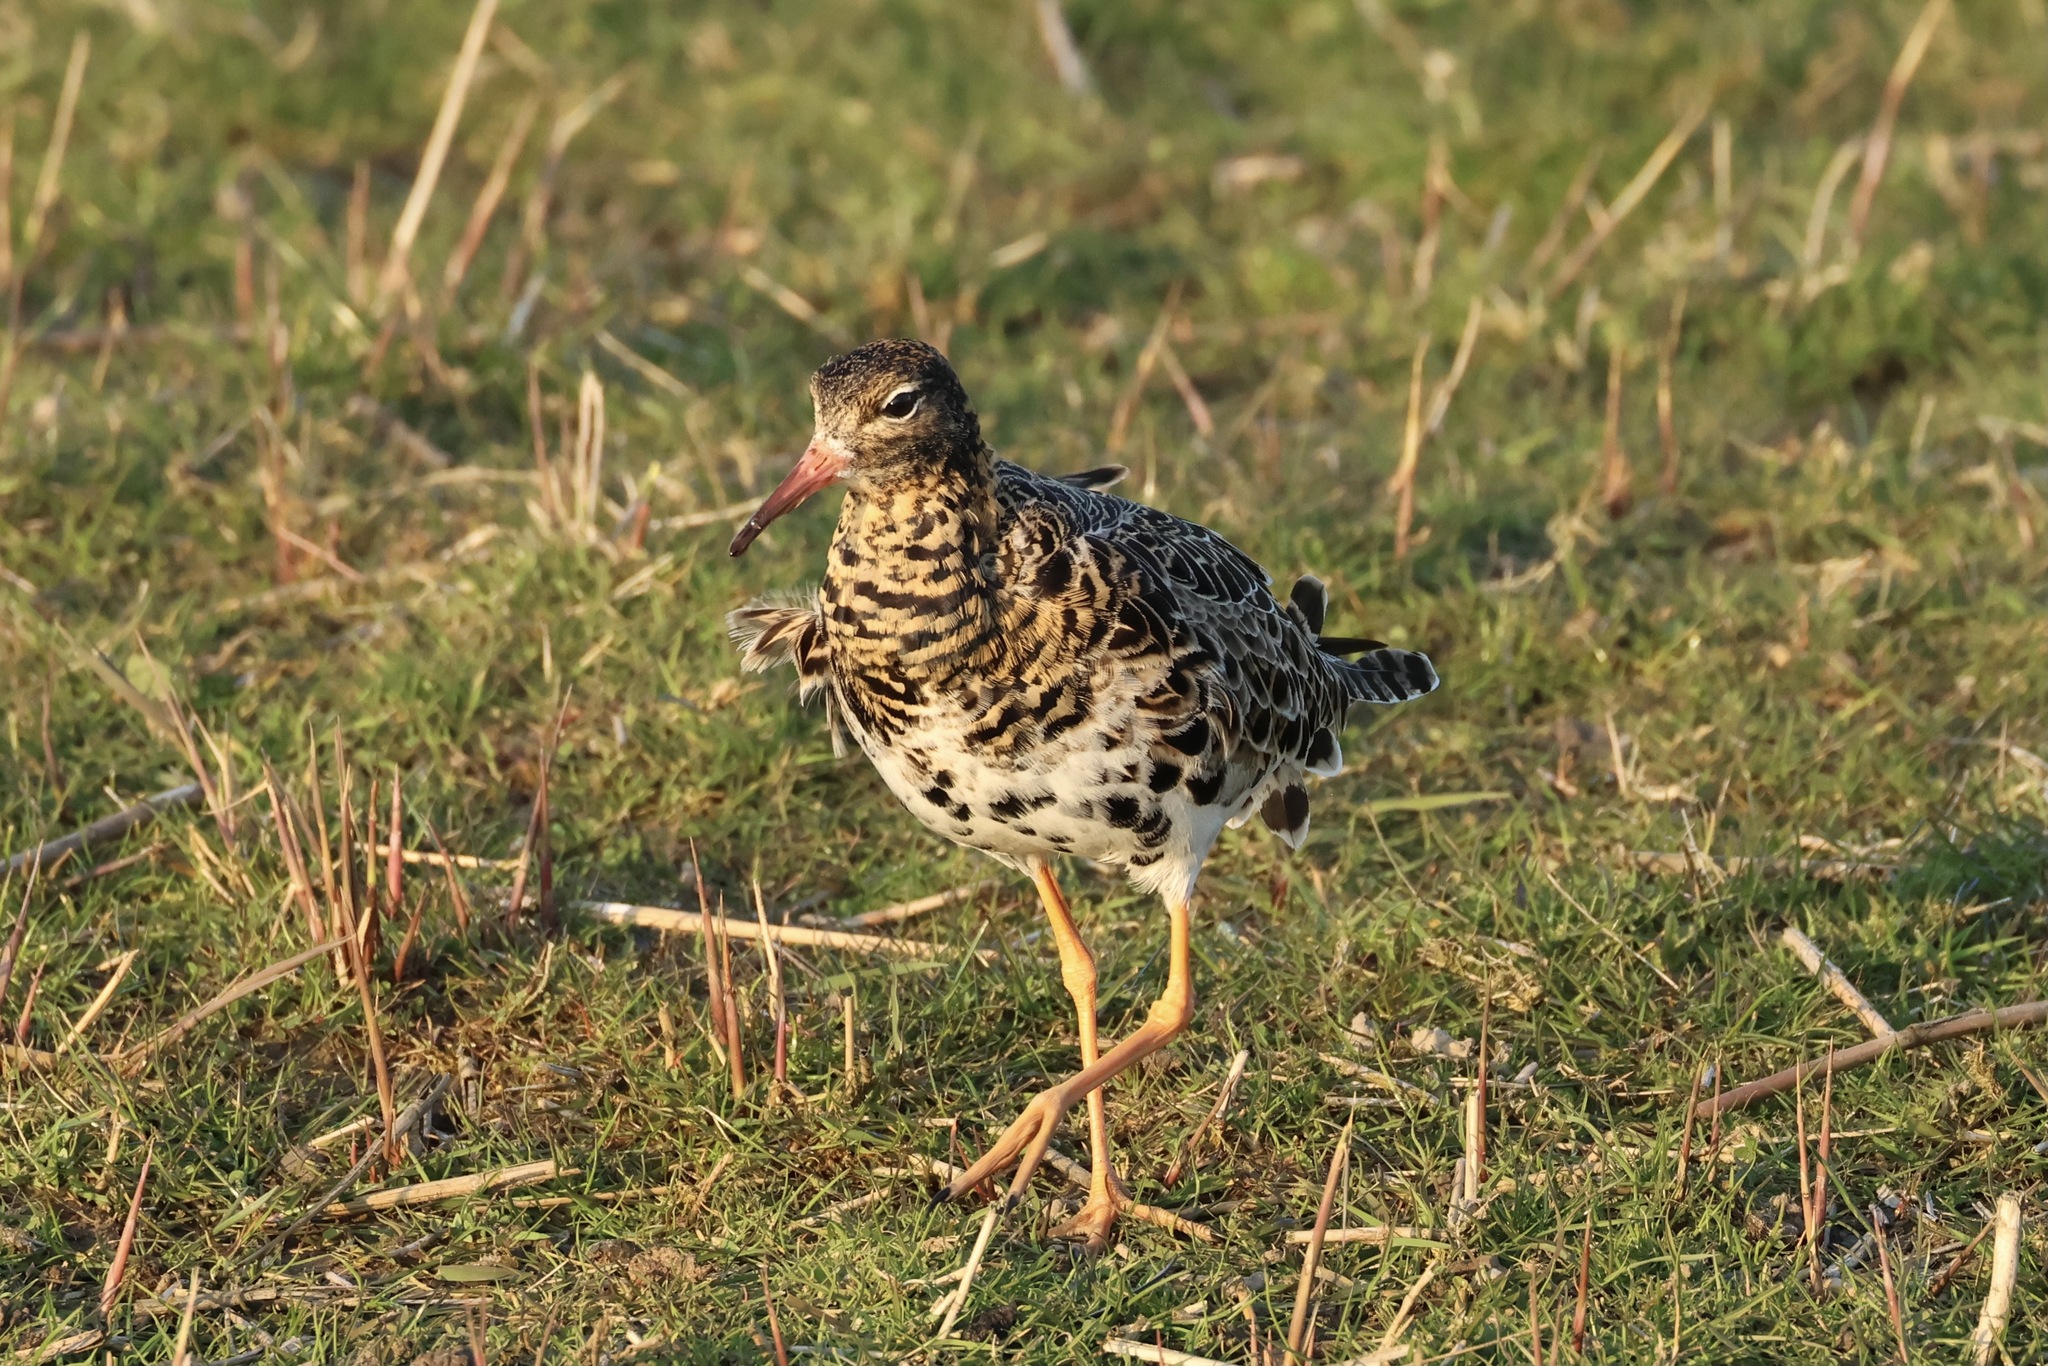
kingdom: Animalia
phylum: Chordata
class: Aves
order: Charadriiformes
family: Scolopacidae
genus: Calidris
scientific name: Calidris pugnax
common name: Ruff
